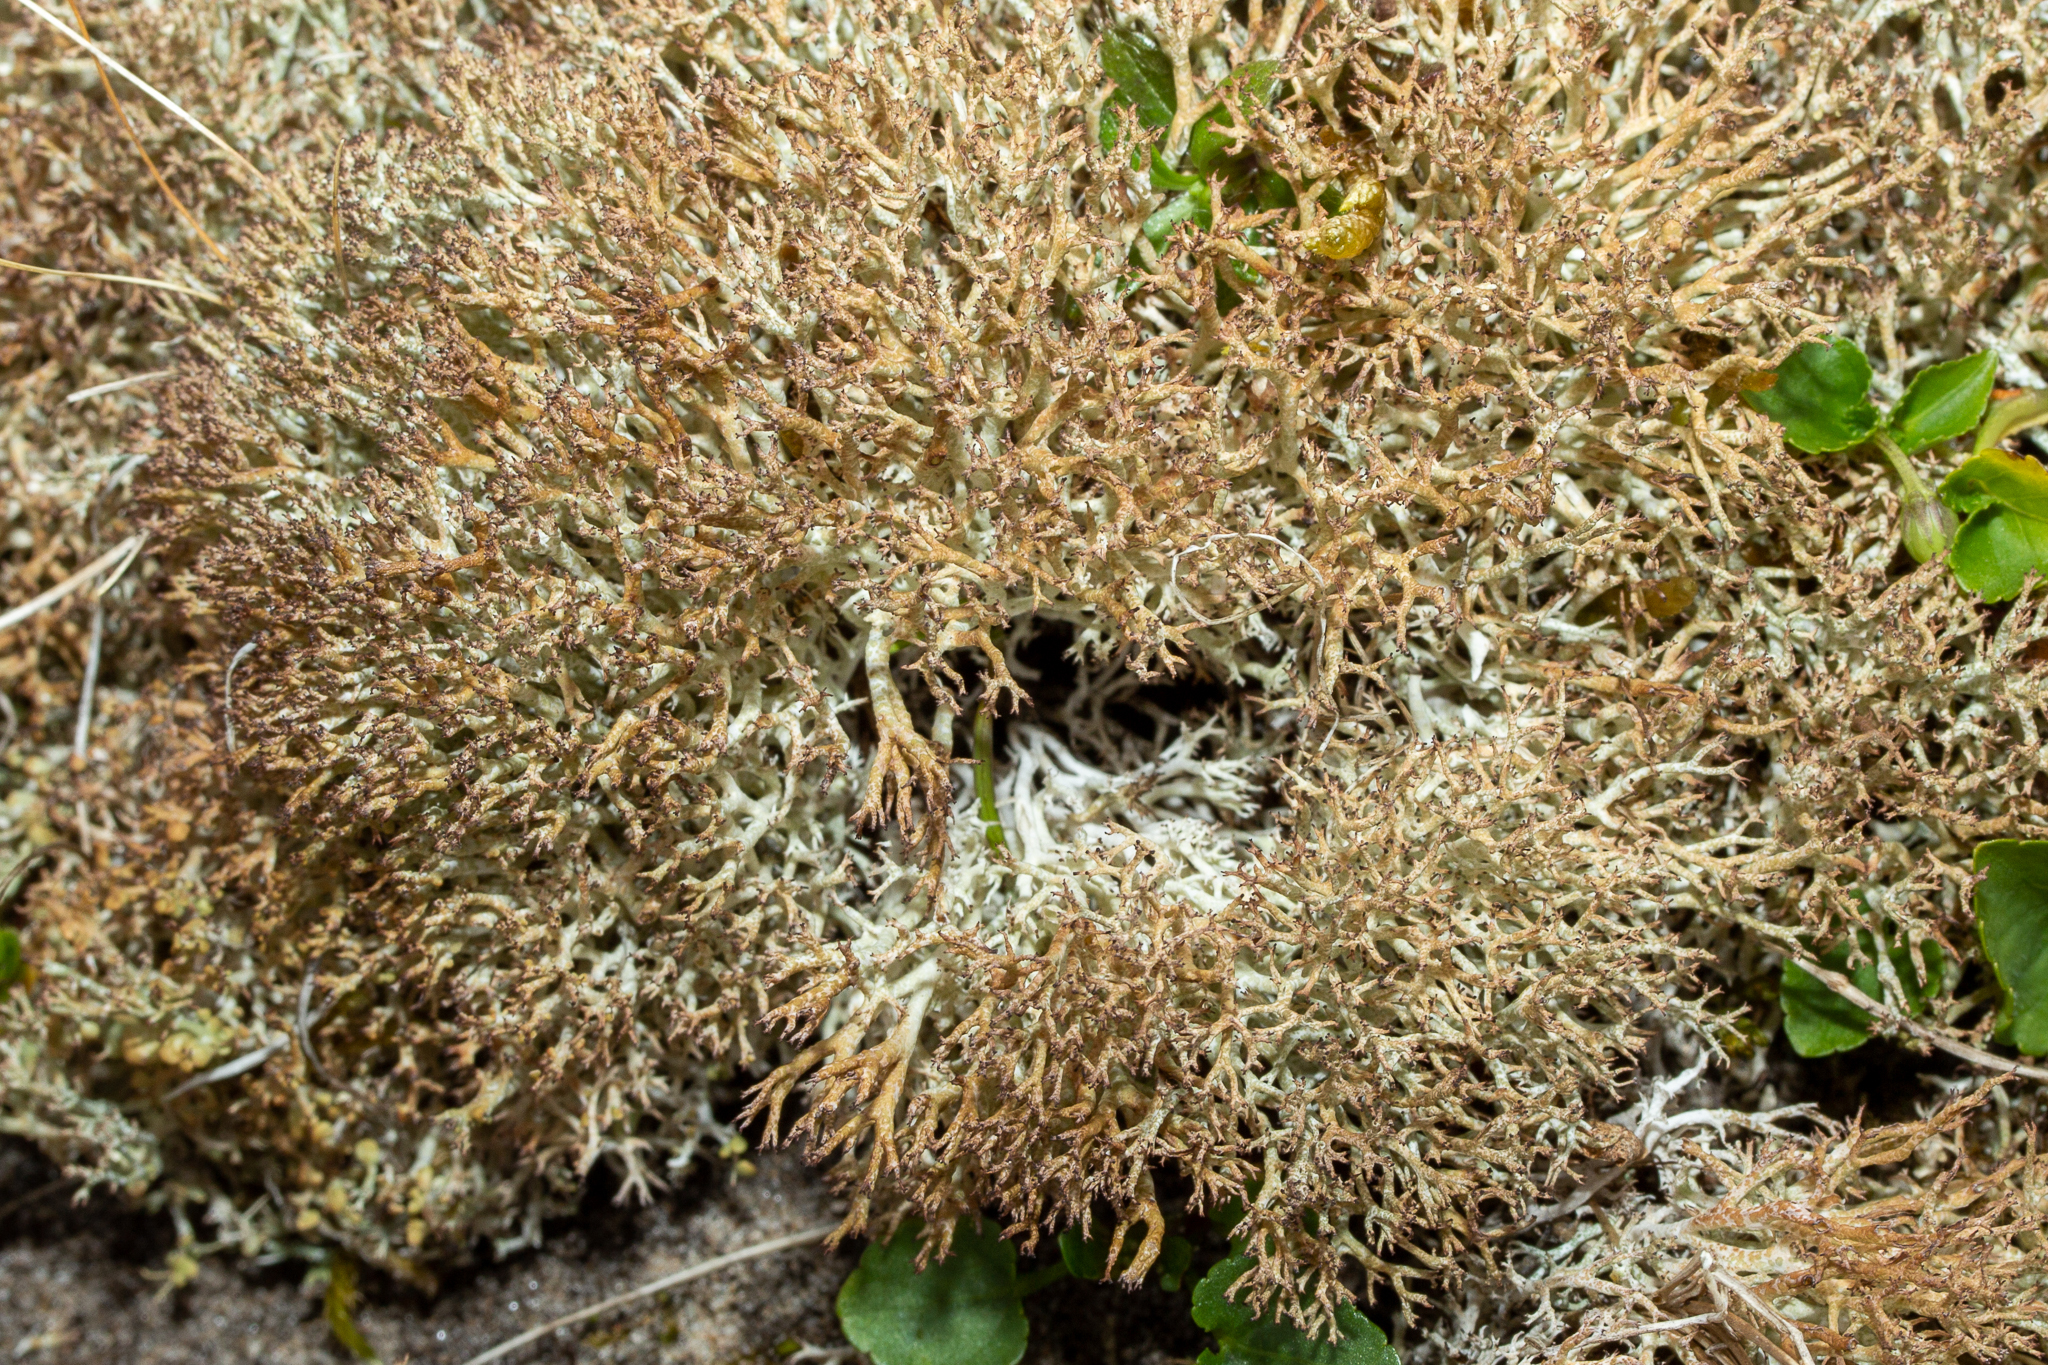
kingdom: Fungi
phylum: Ascomycota
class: Lecanoromycetes
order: Lecanorales
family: Cladoniaceae
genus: Cladonia
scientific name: Cladonia rangiformis
